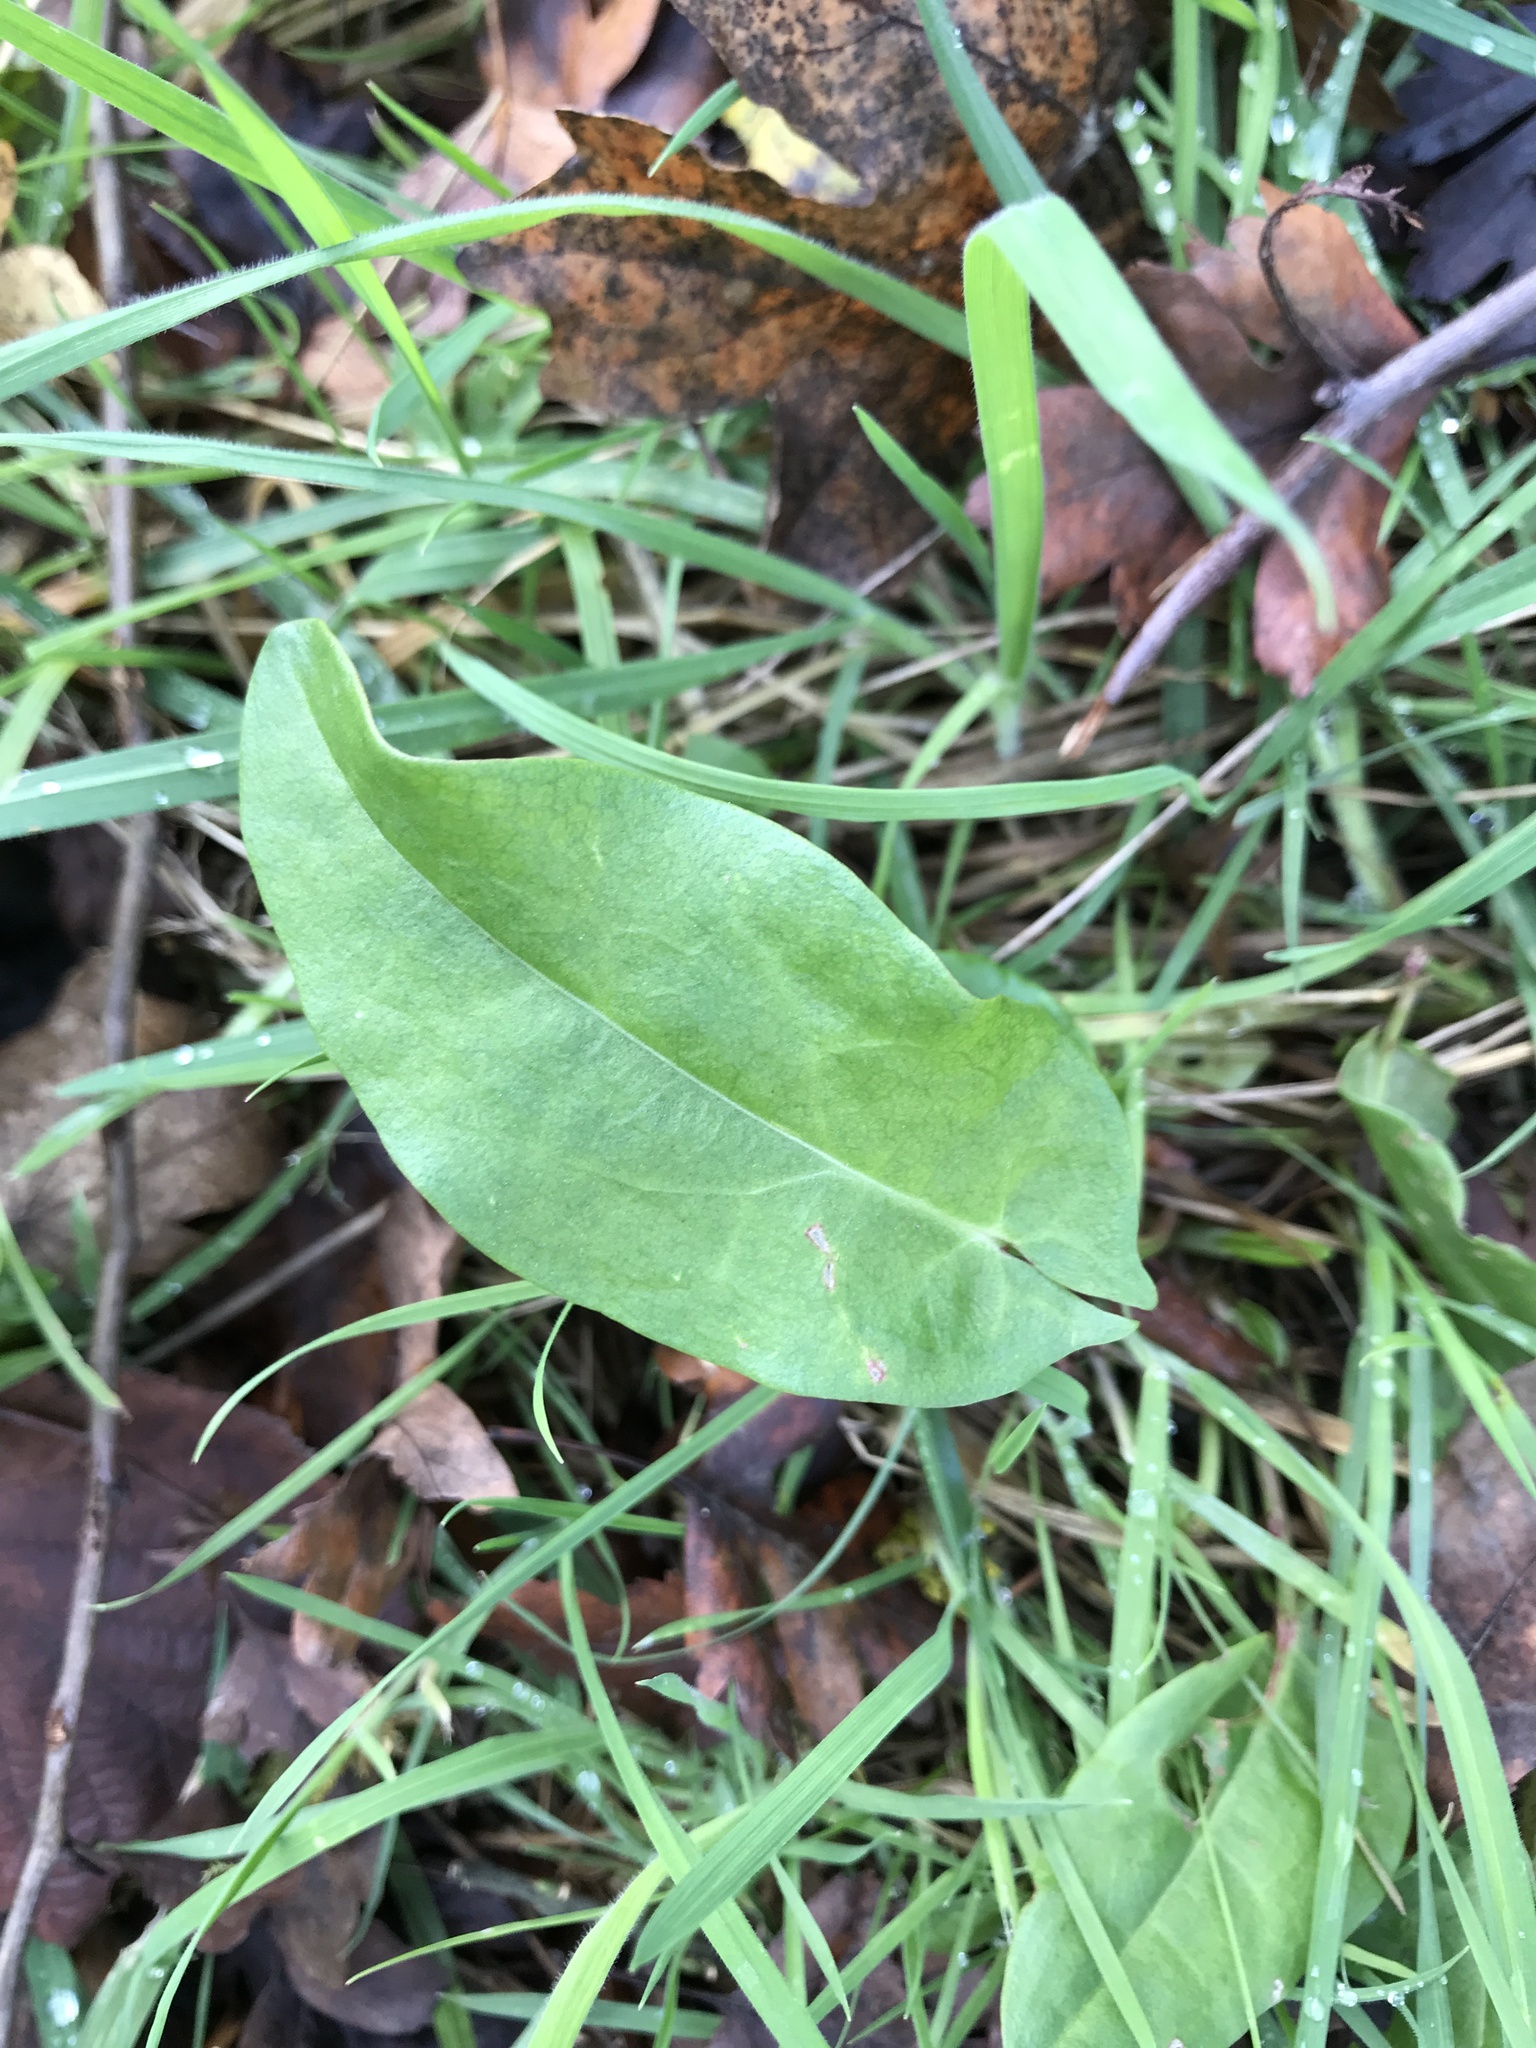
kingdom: Plantae
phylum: Tracheophyta
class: Magnoliopsida
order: Caryophyllales
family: Polygonaceae
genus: Rumex
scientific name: Rumex acetosa
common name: Garden sorrel
